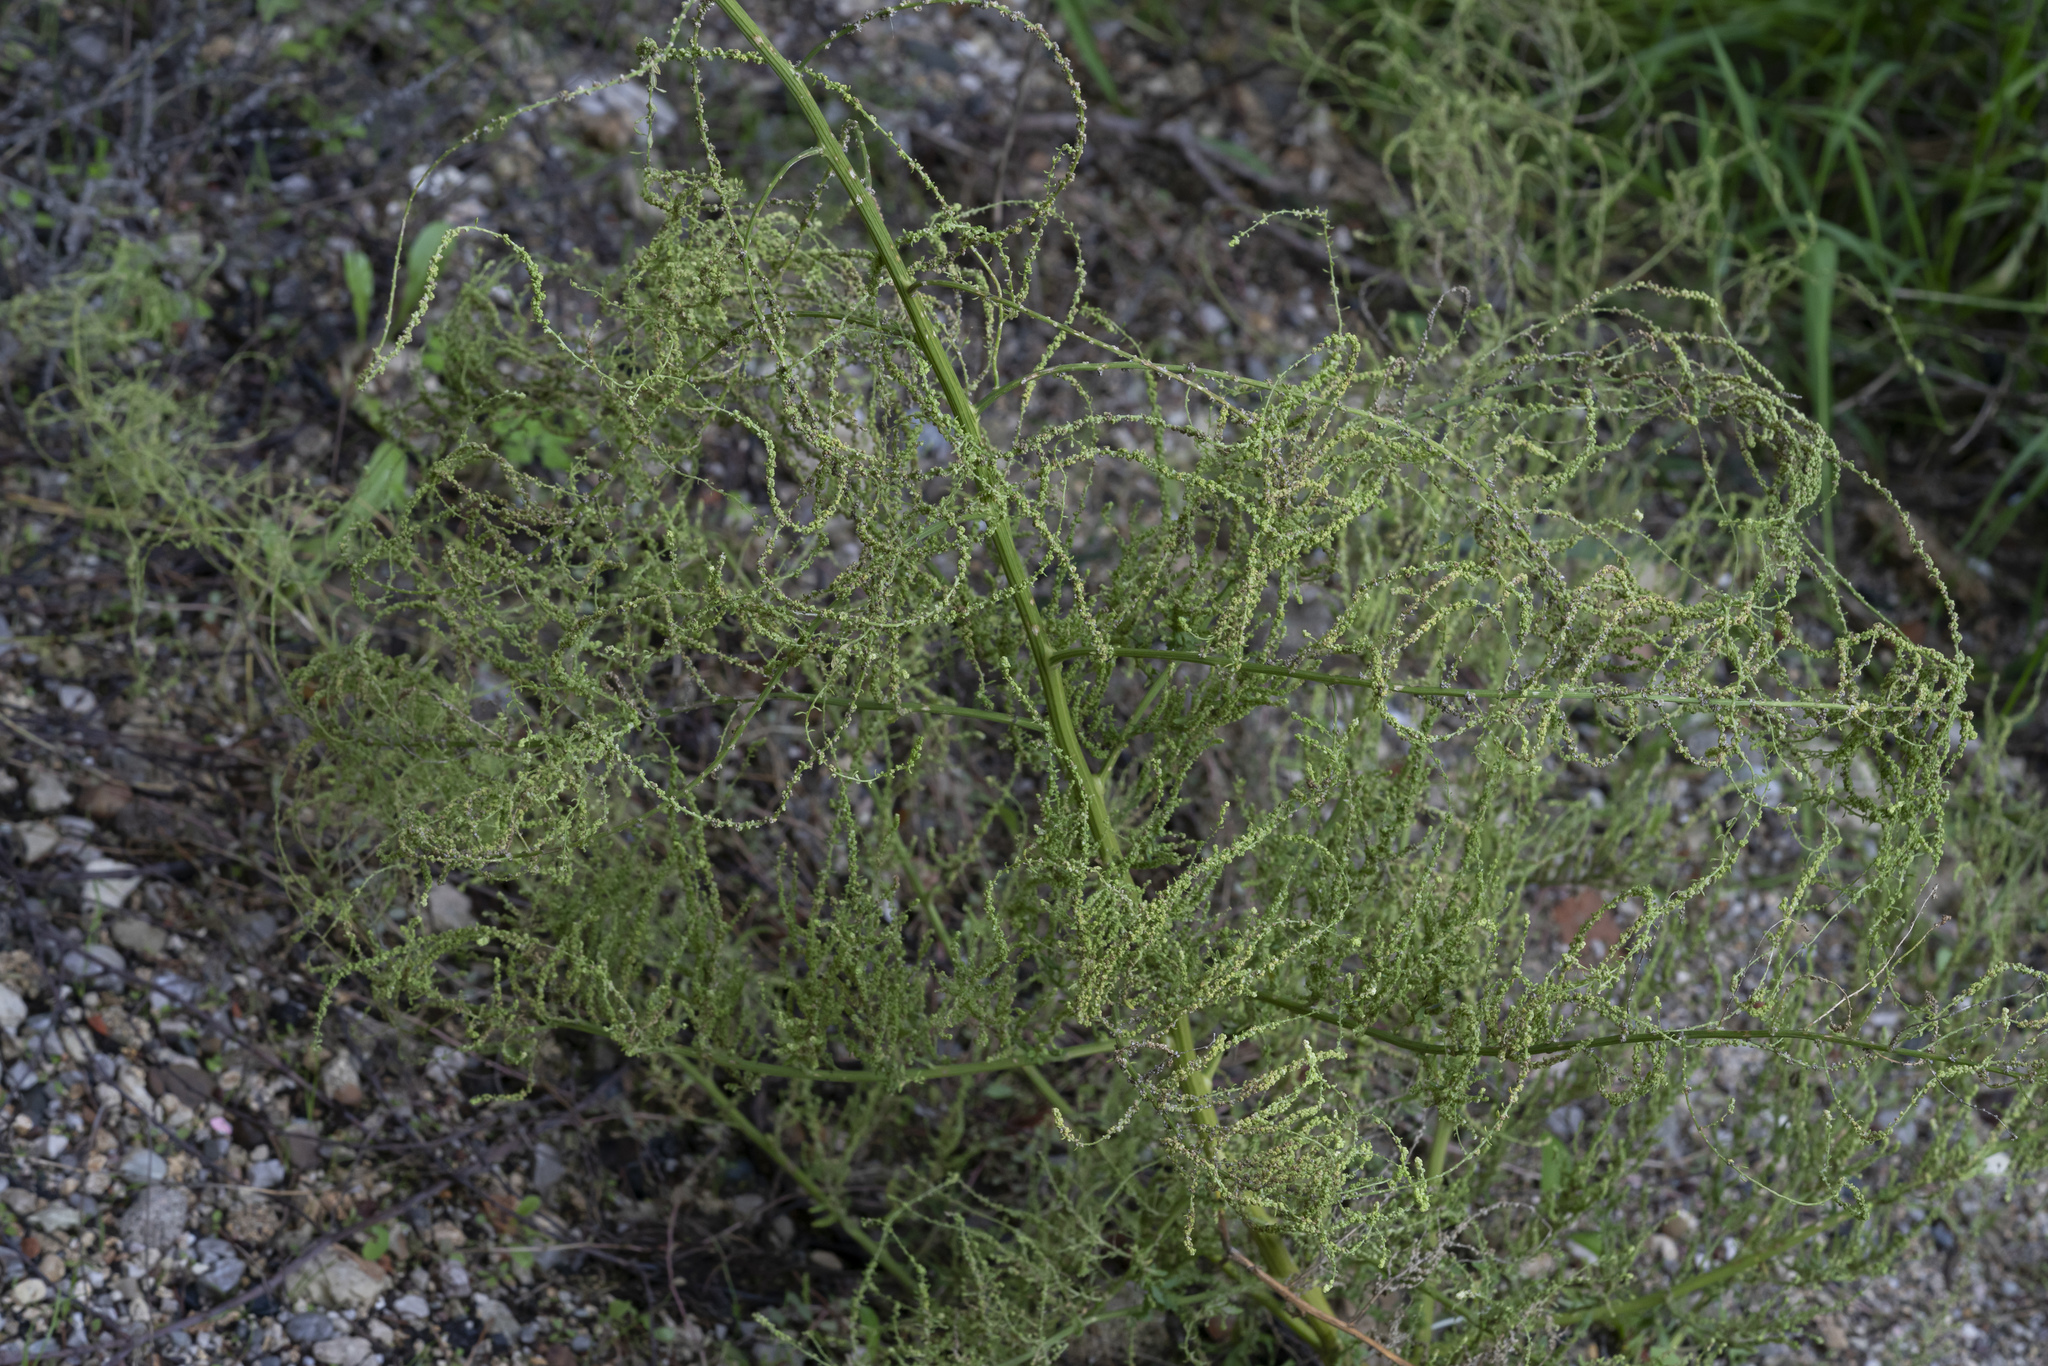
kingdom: Plantae
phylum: Tracheophyta
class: Magnoliopsida
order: Caryophyllales
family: Amaranthaceae
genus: Dysphania
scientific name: Dysphania ambrosioides
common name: Wormseed
